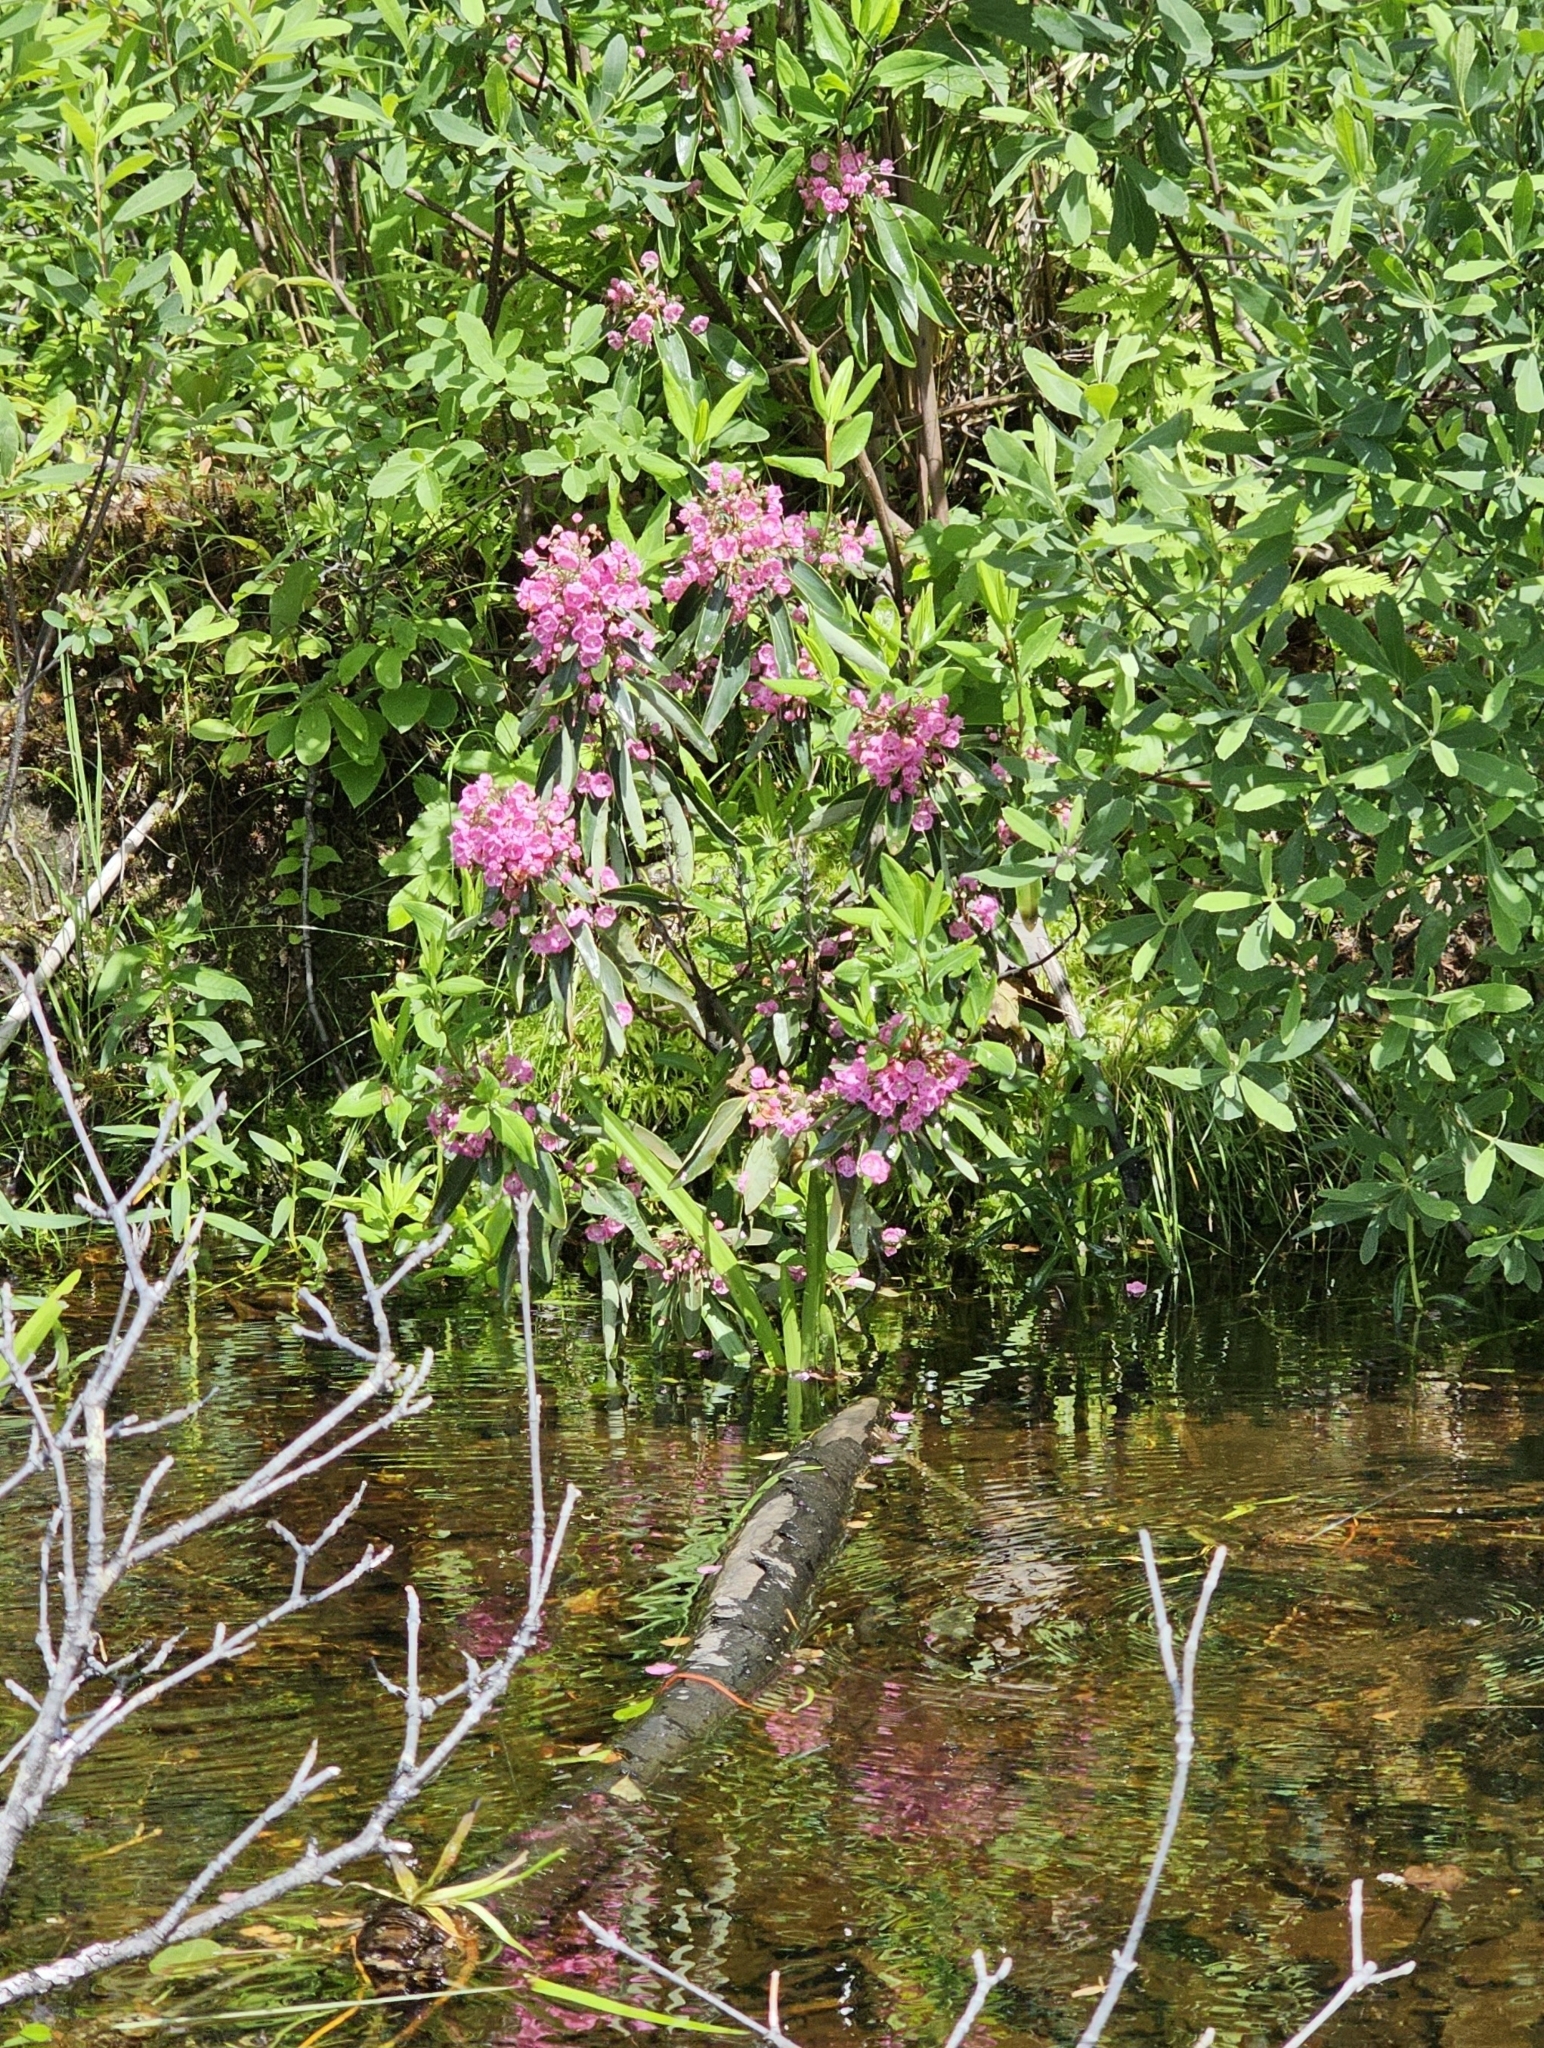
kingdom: Plantae
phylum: Tracheophyta
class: Magnoliopsida
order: Ericales
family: Ericaceae
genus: Kalmia
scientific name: Kalmia angustifolia
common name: Sheep-laurel
